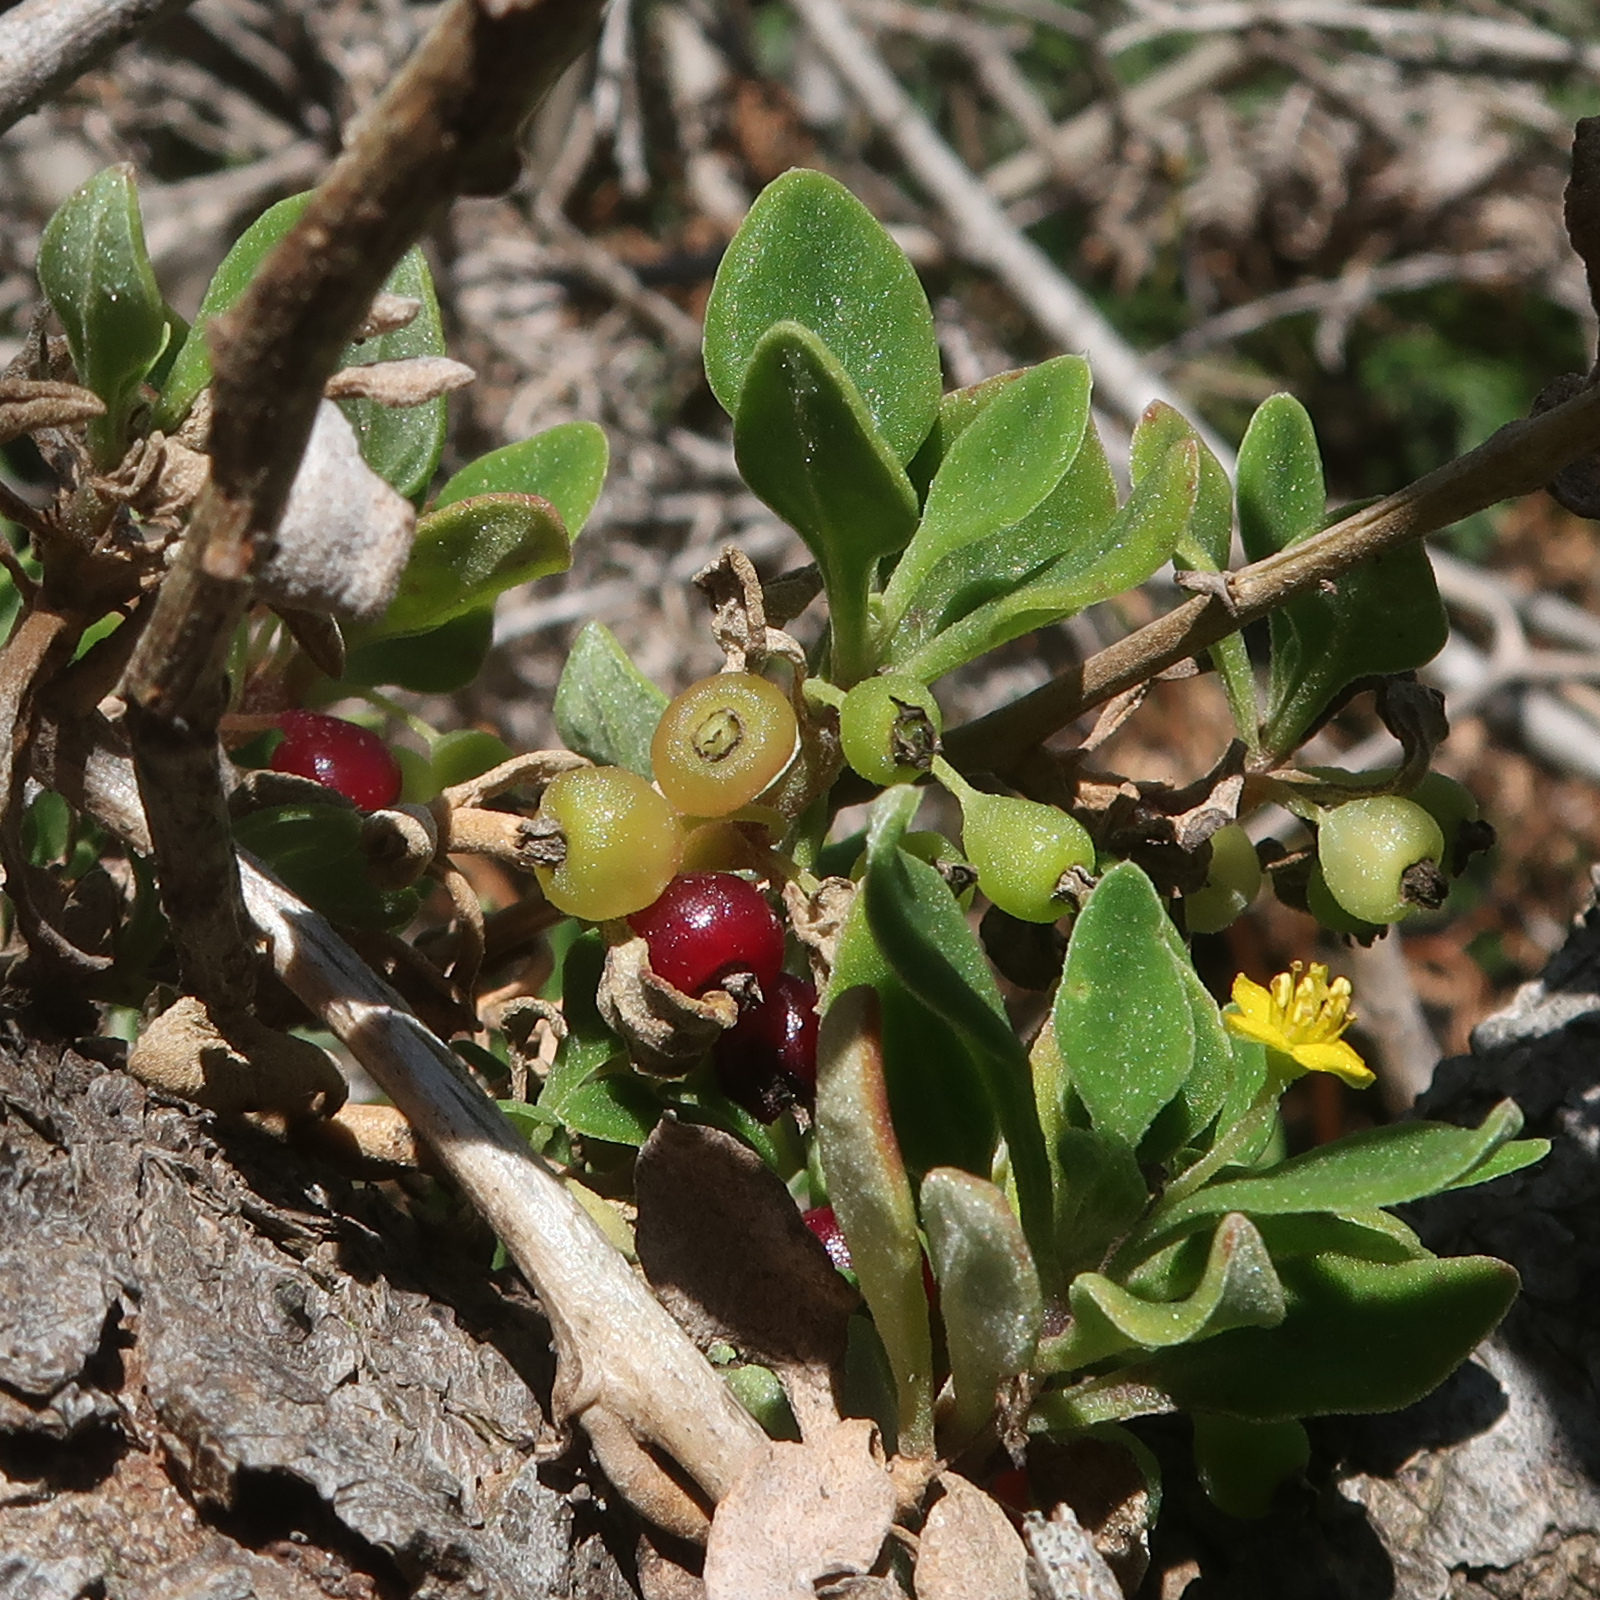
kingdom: Plantae
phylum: Tracheophyta
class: Magnoliopsida
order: Caryophyllales
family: Aizoaceae
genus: Tetragonia
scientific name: Tetragonia implexicoma
